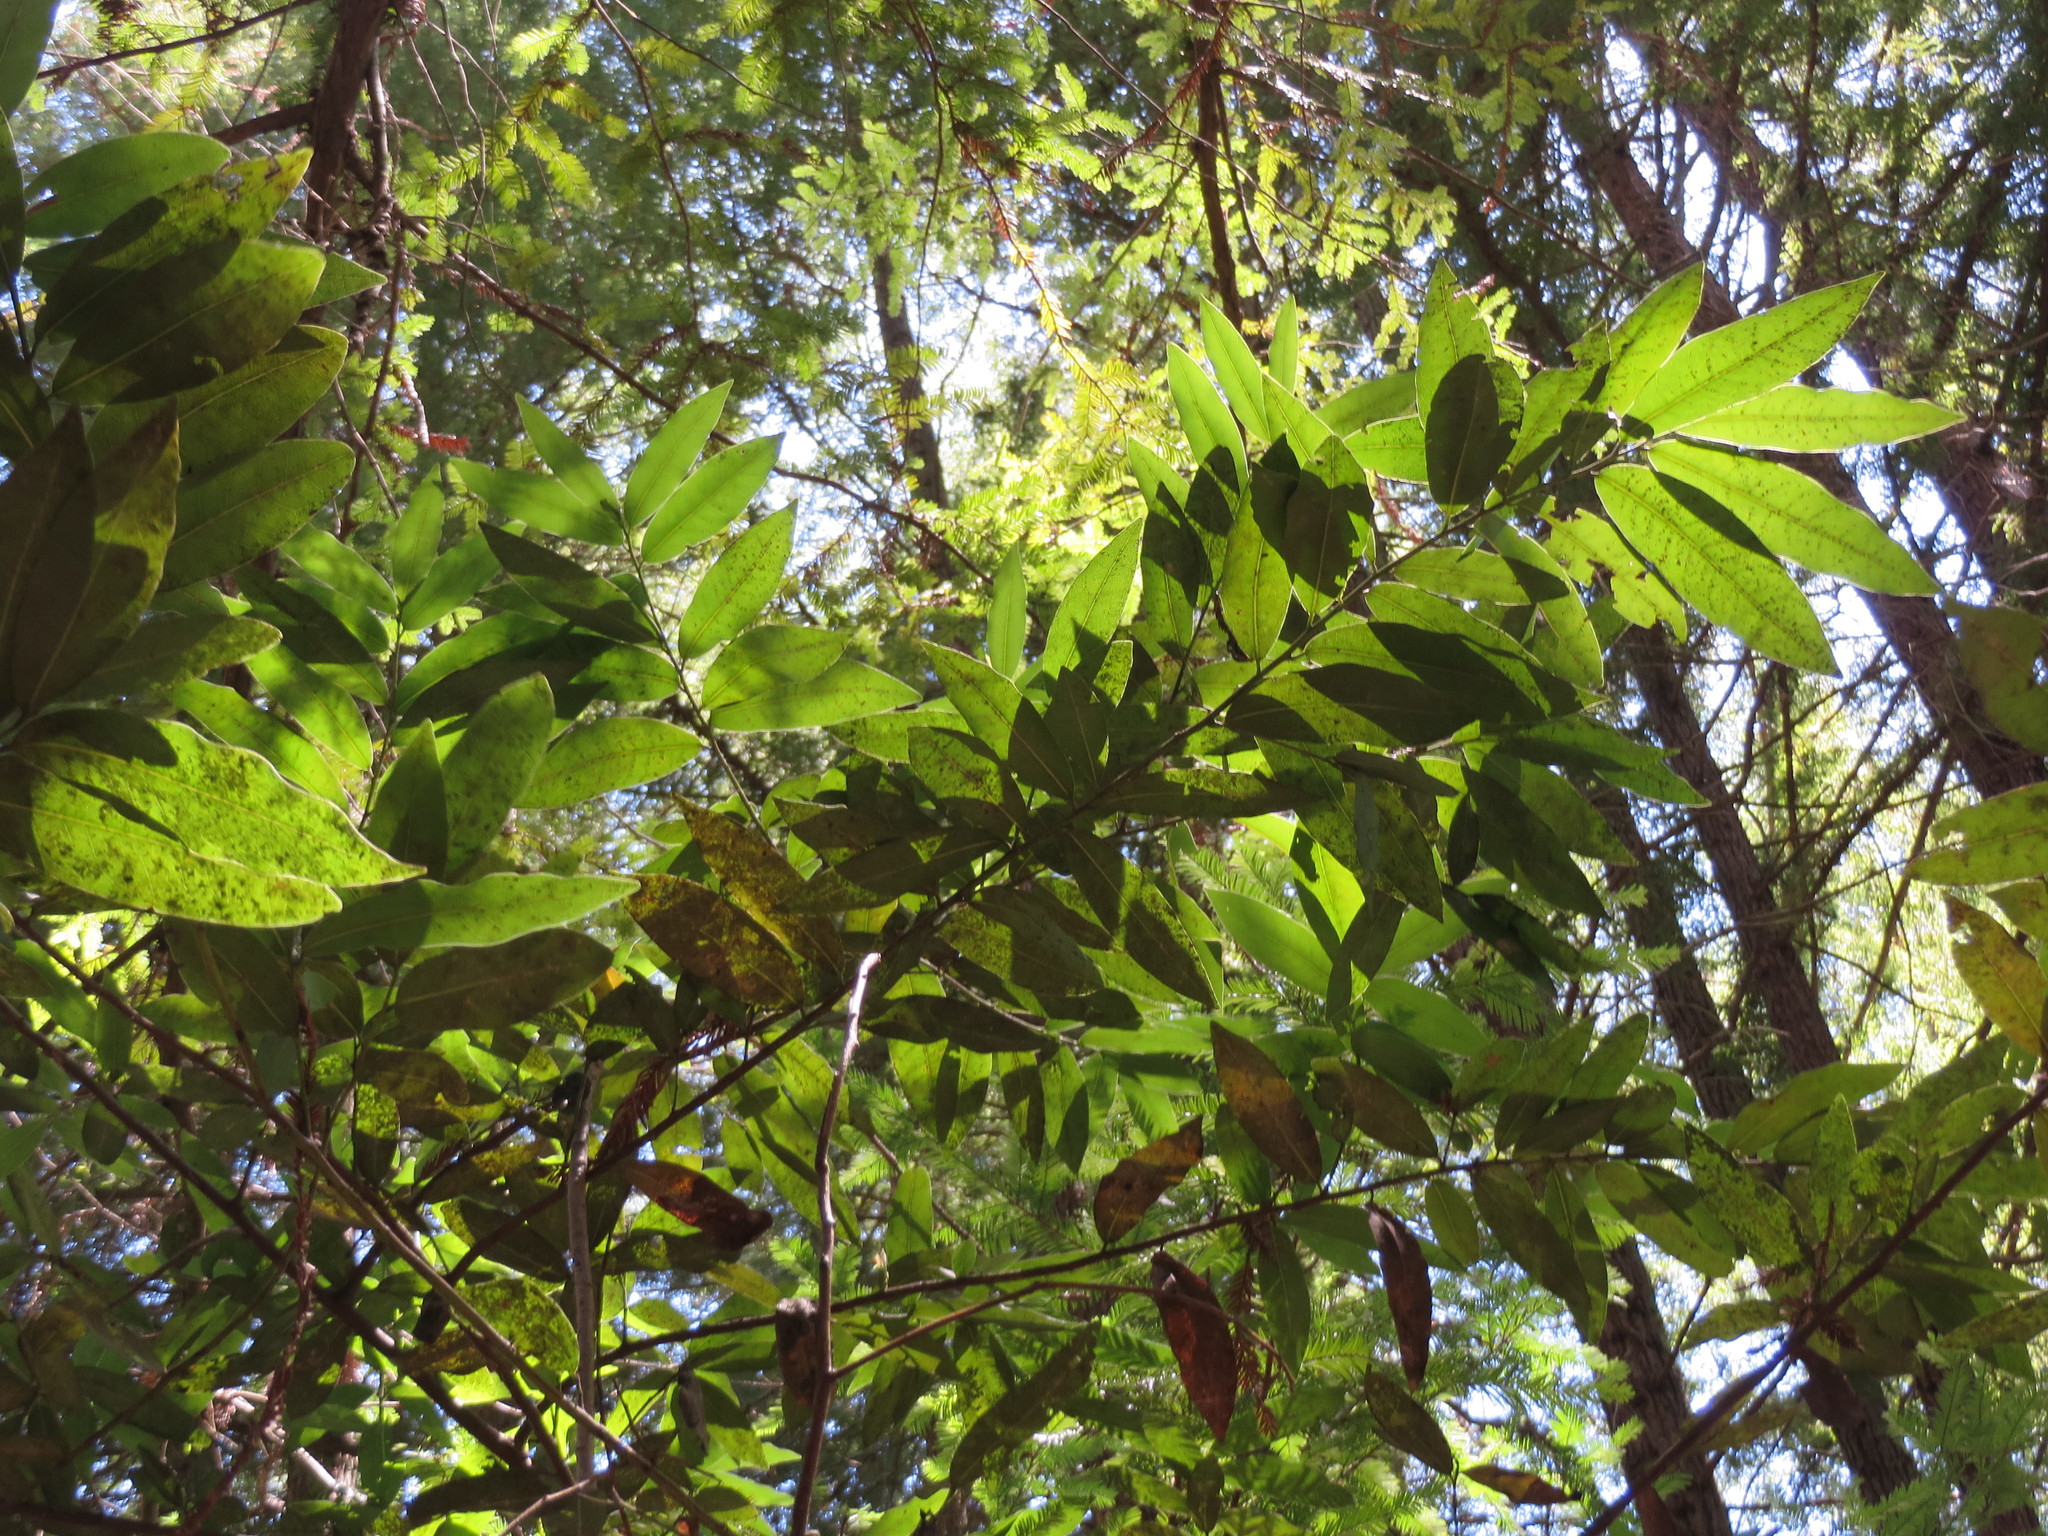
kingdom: Plantae
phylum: Tracheophyta
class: Magnoliopsida
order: Laurales
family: Lauraceae
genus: Umbellularia
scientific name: Umbellularia californica
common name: California bay
